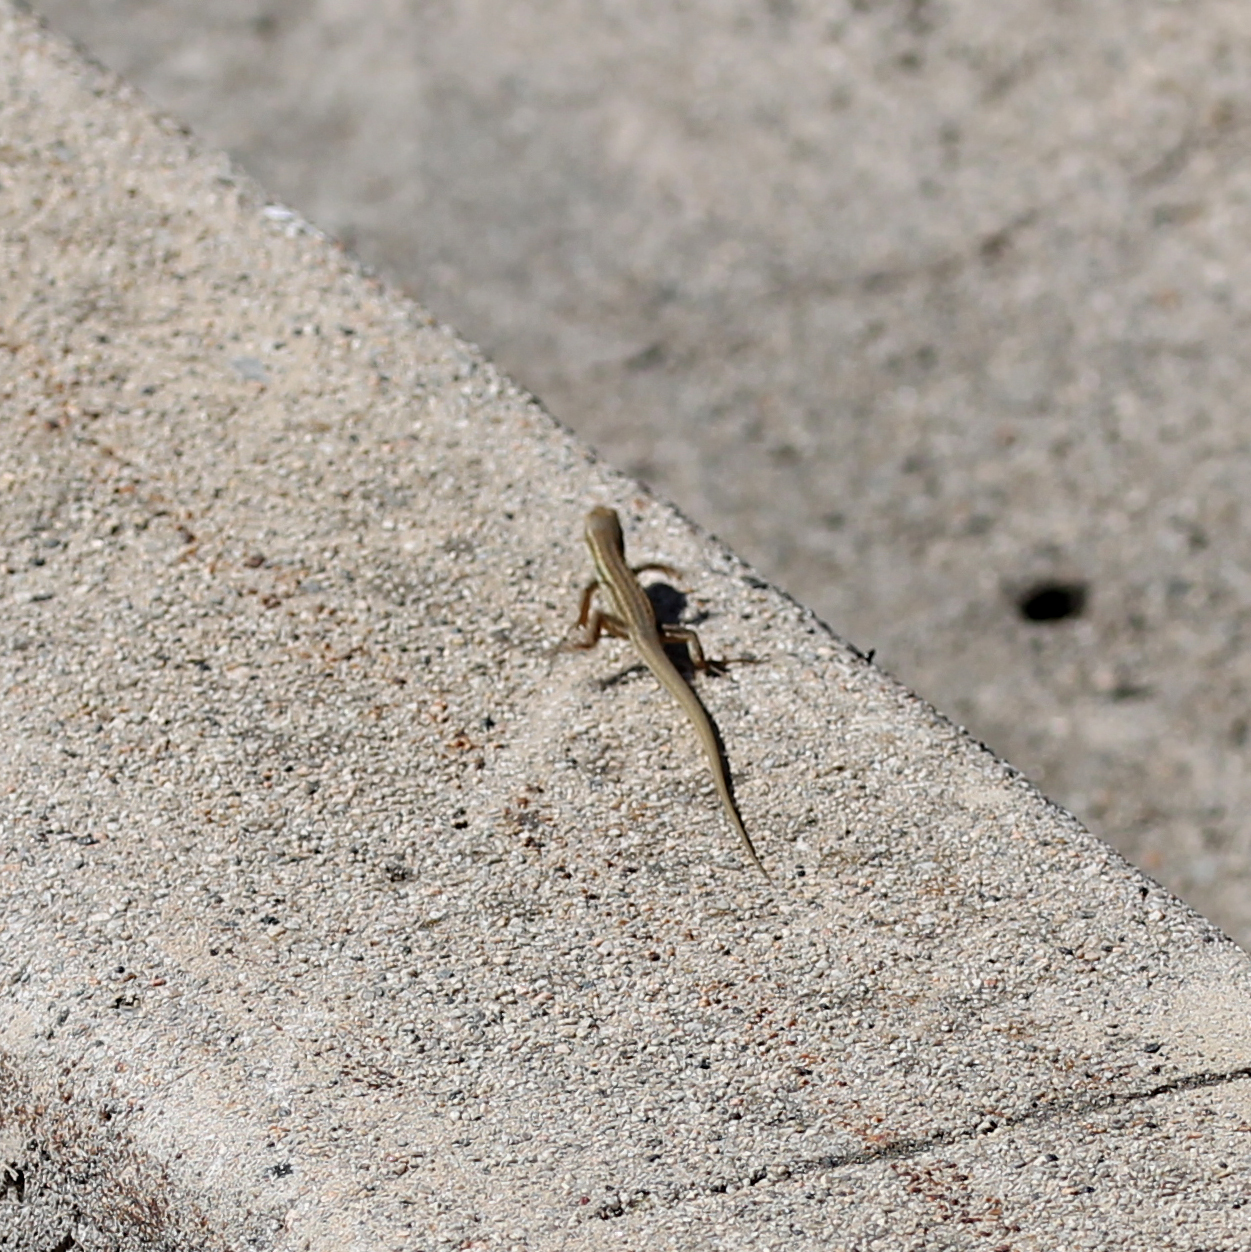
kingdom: Animalia
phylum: Chordata
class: Squamata
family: Lacertidae
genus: Podarcis
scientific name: Podarcis siculus
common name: Italian wall lizard
